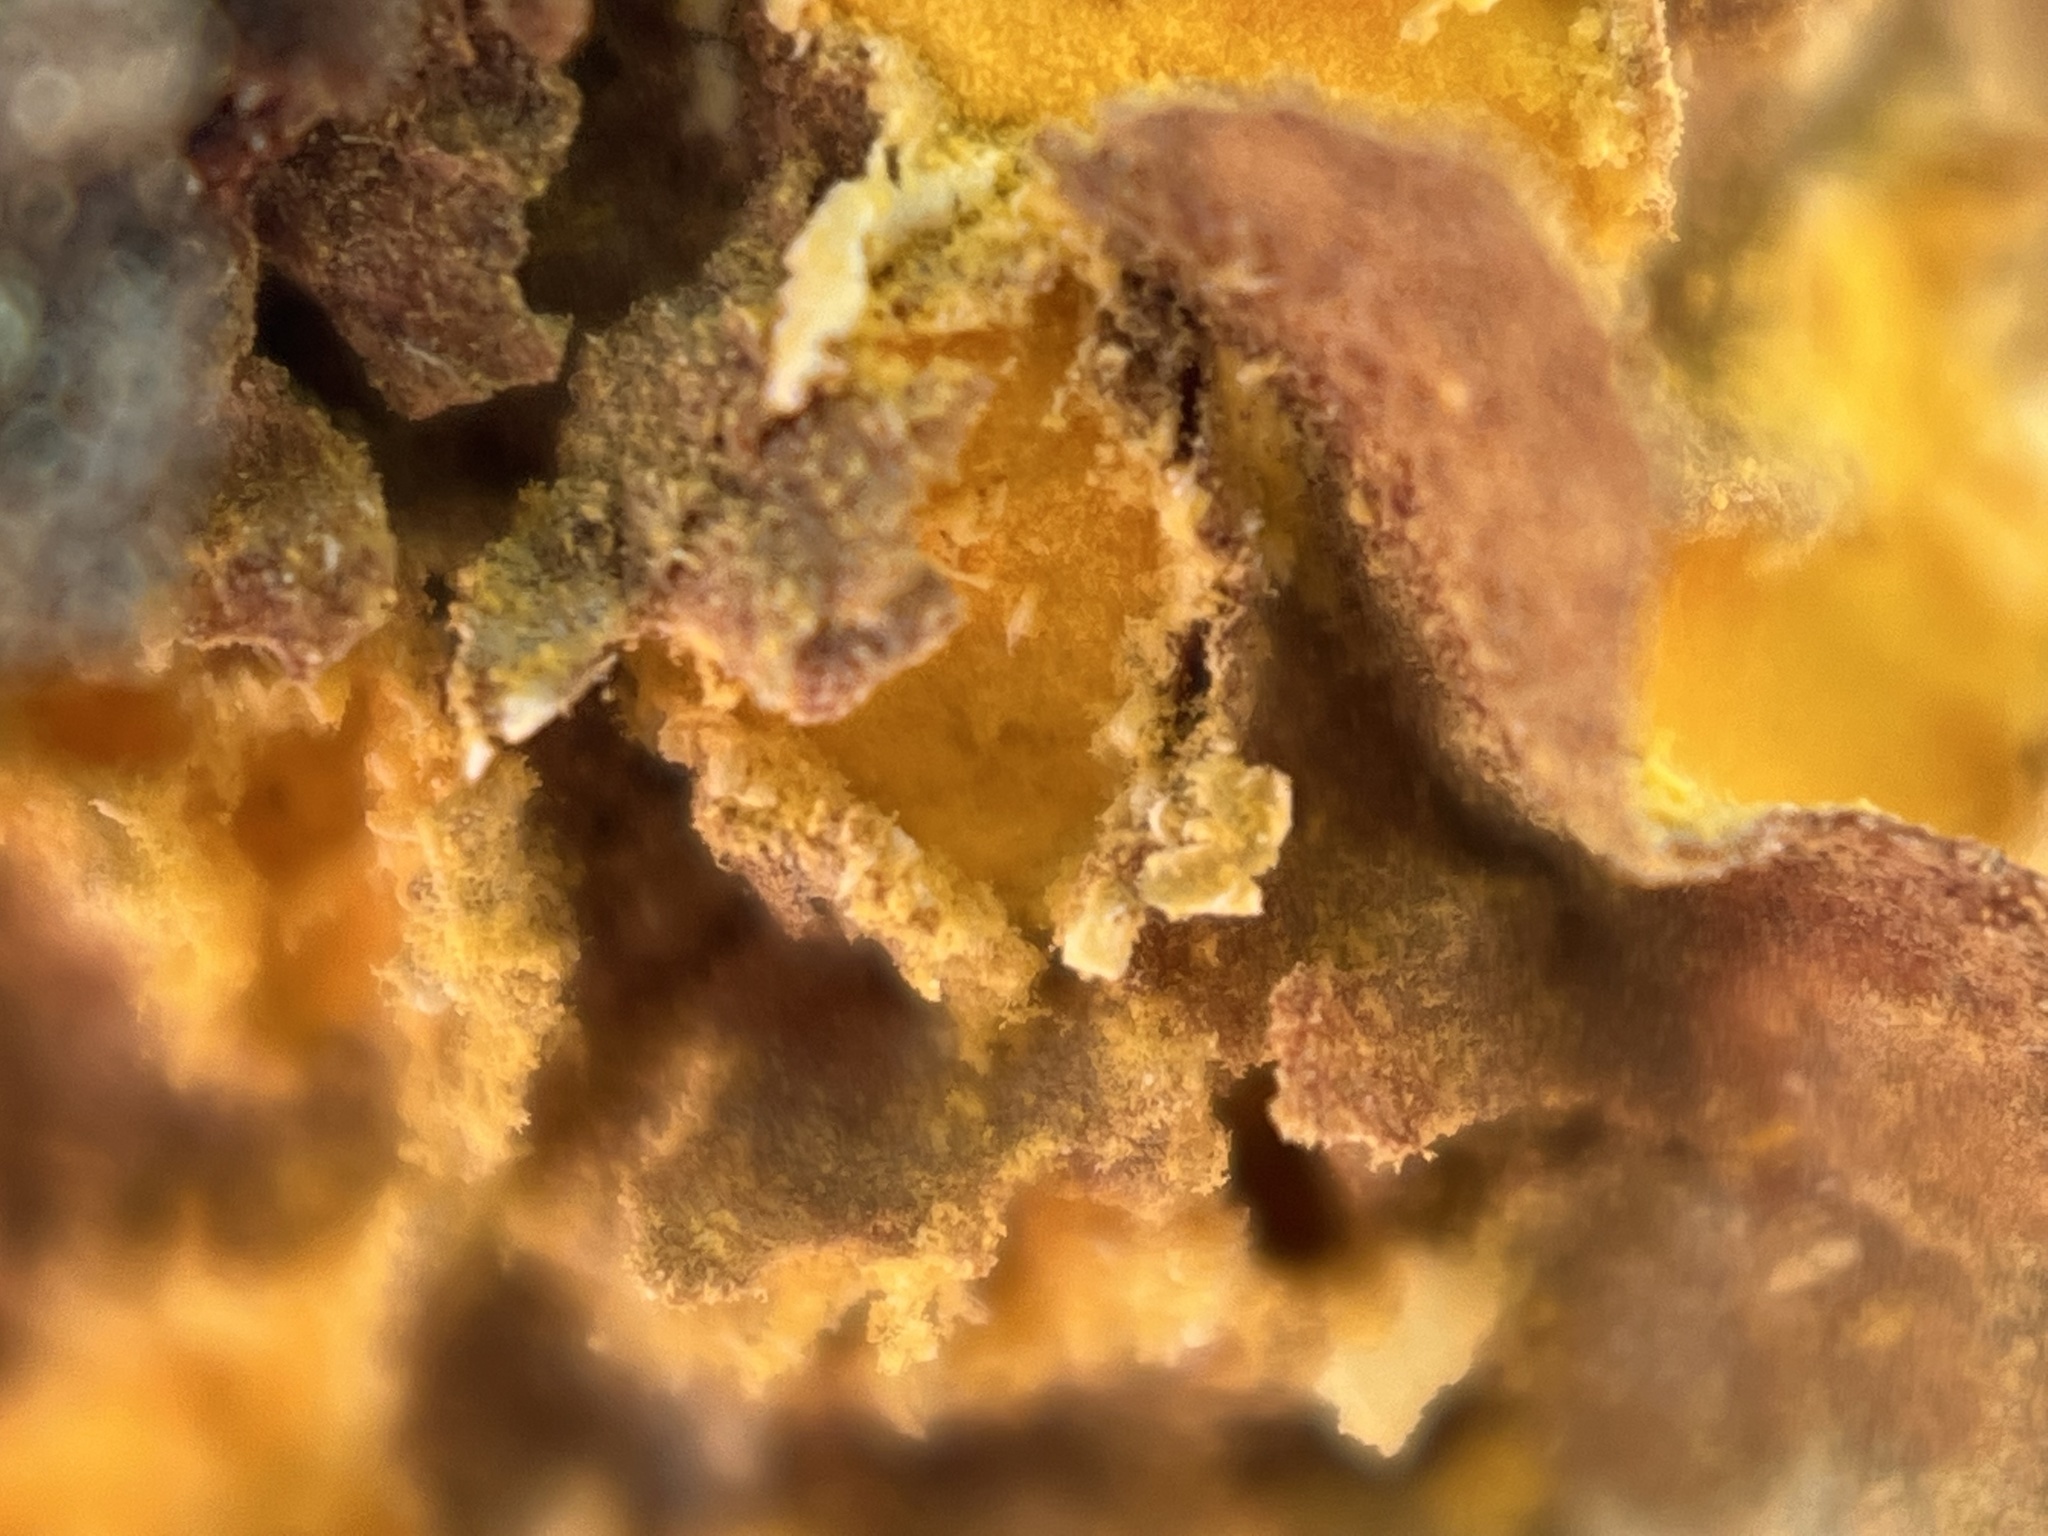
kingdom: Fungi
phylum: Basidiomycota
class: Pucciniomycetes
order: Pucciniales
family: Cronartiaceae
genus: Cronartium
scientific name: Cronartium quercuum
